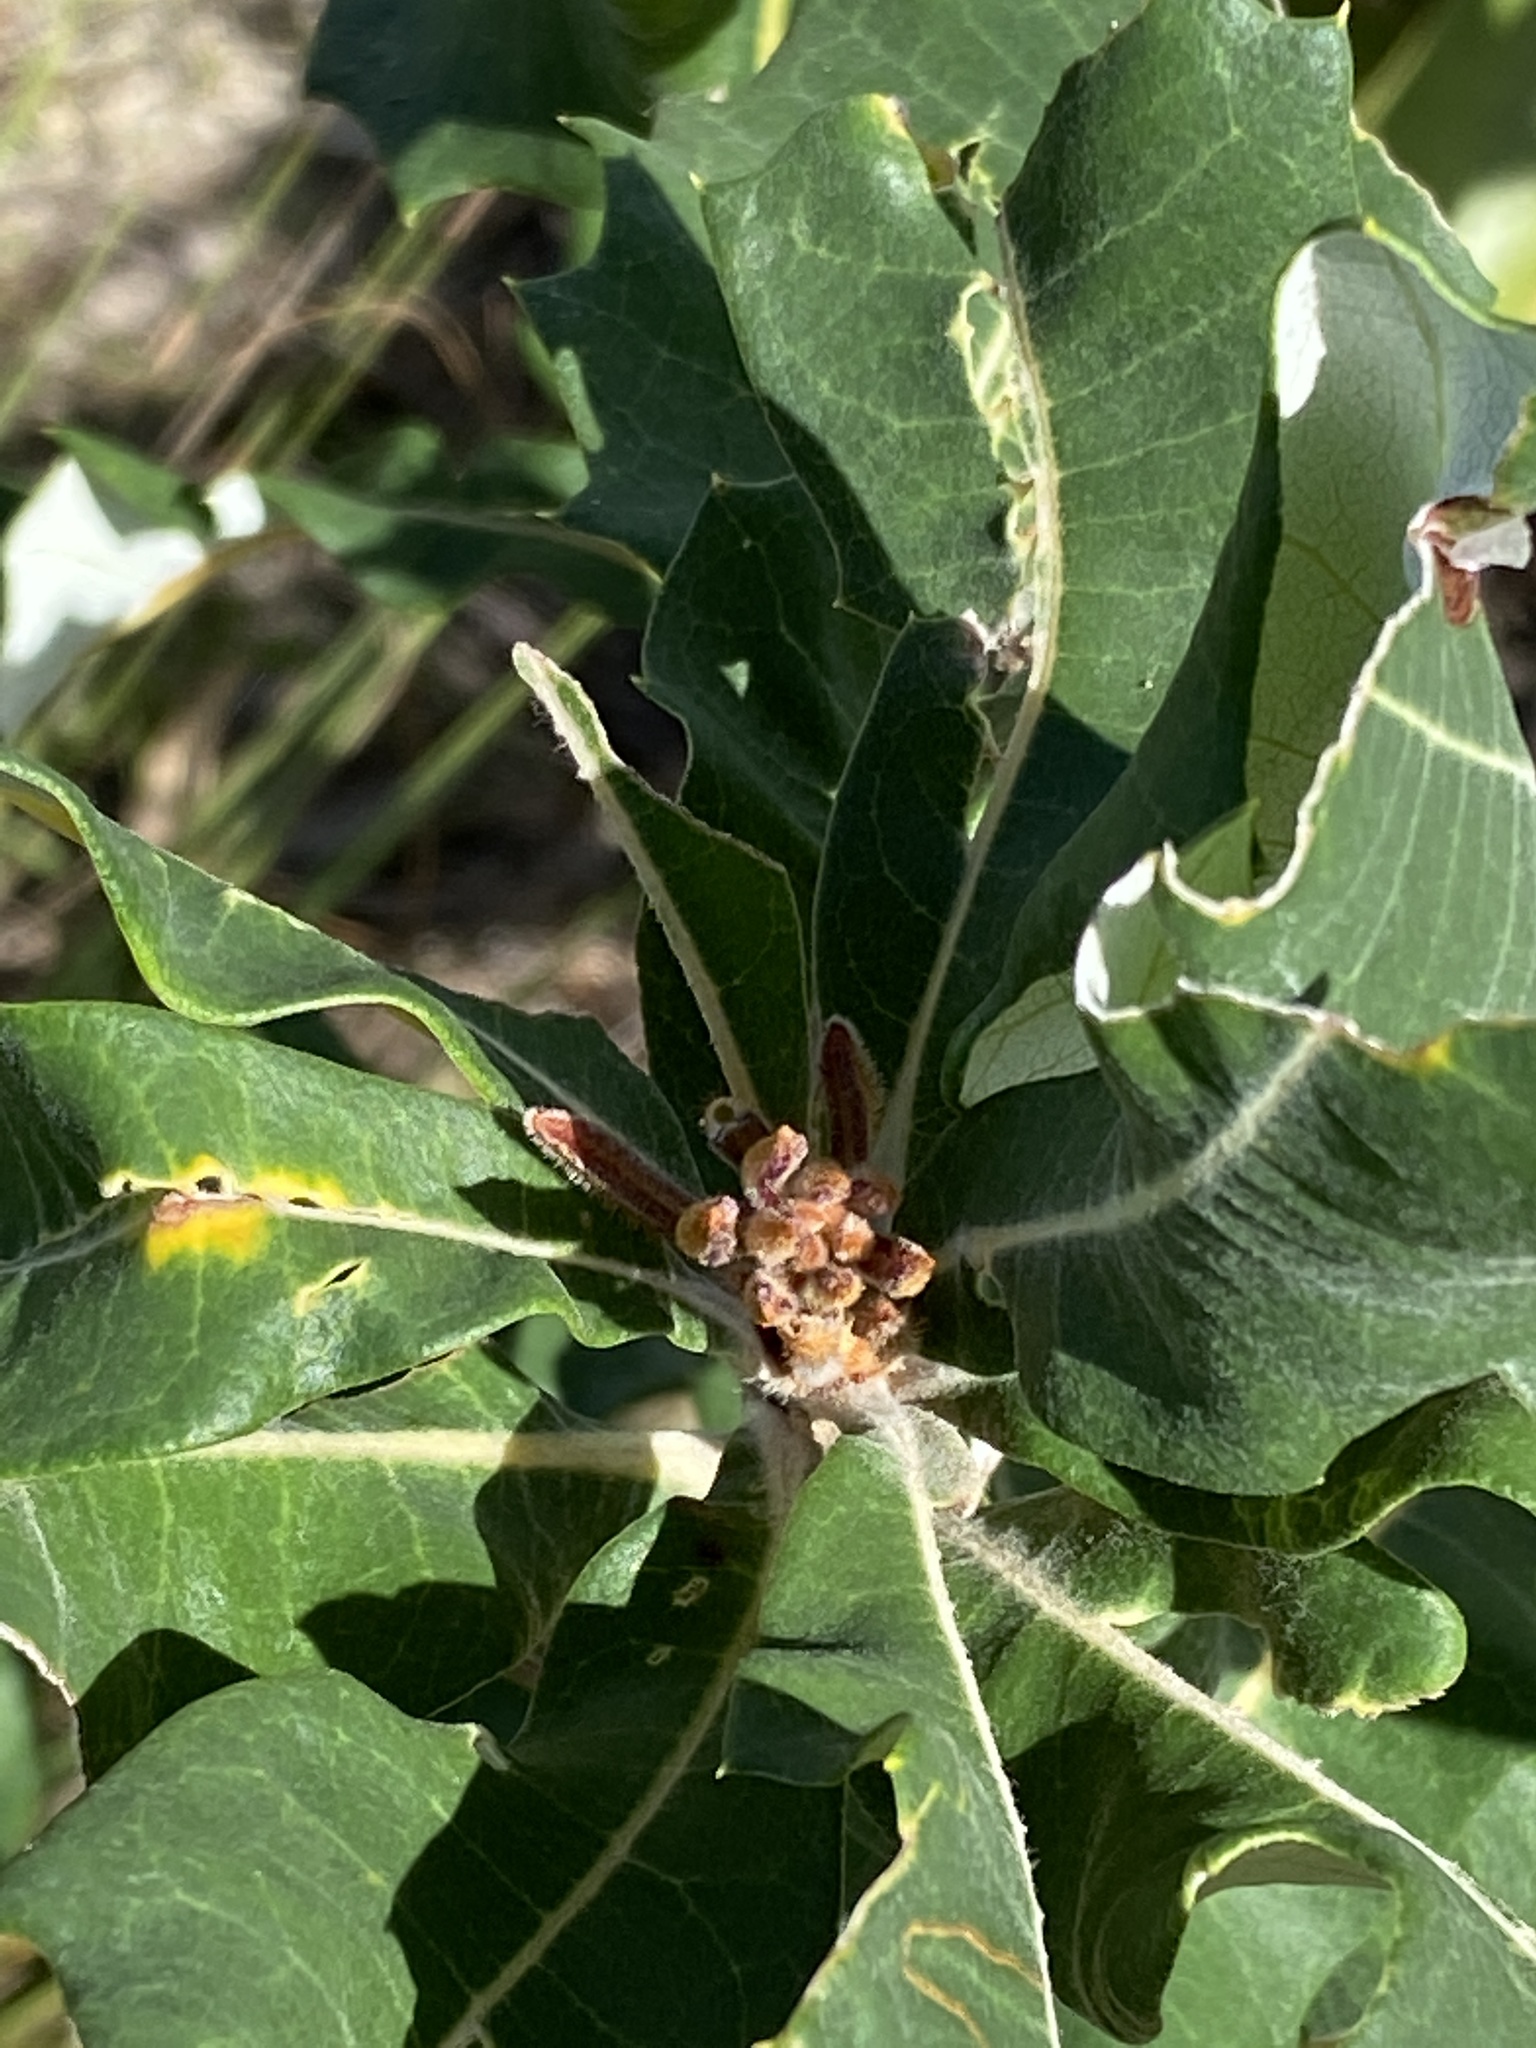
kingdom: Plantae
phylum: Tracheophyta
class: Magnoliopsida
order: Proteales
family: Proteaceae
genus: Banksia
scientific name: Banksia dentata
